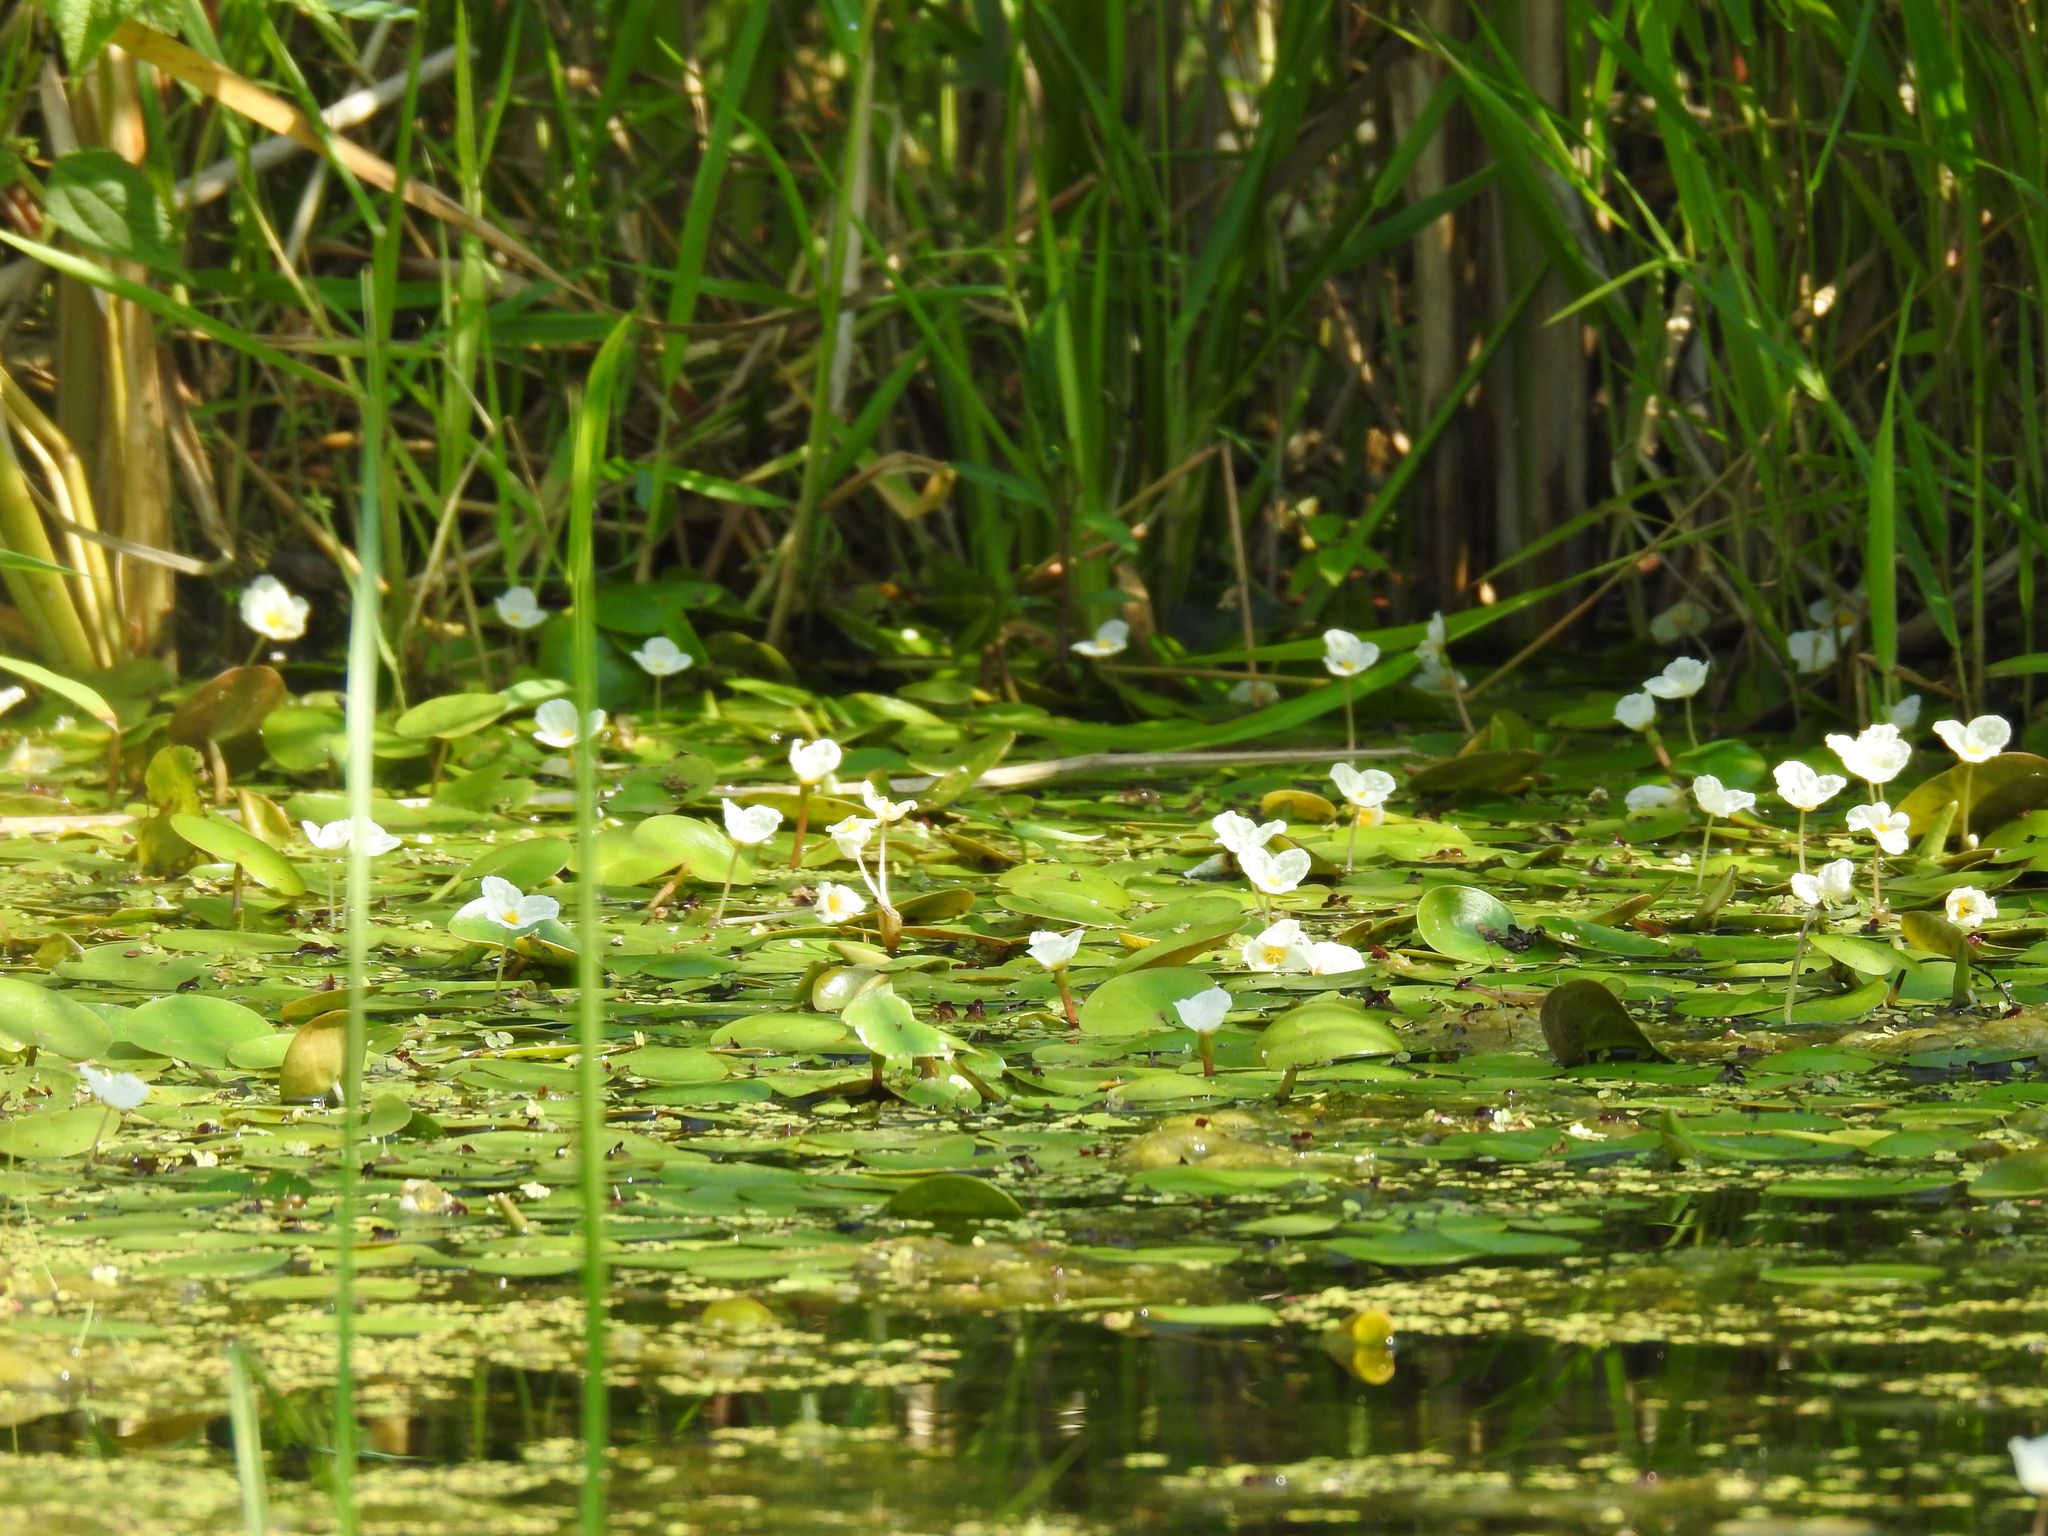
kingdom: Plantae
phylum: Tracheophyta
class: Liliopsida
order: Alismatales
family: Hydrocharitaceae
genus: Hydrocharis
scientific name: Hydrocharis morsus-ranae
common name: Frogbit
